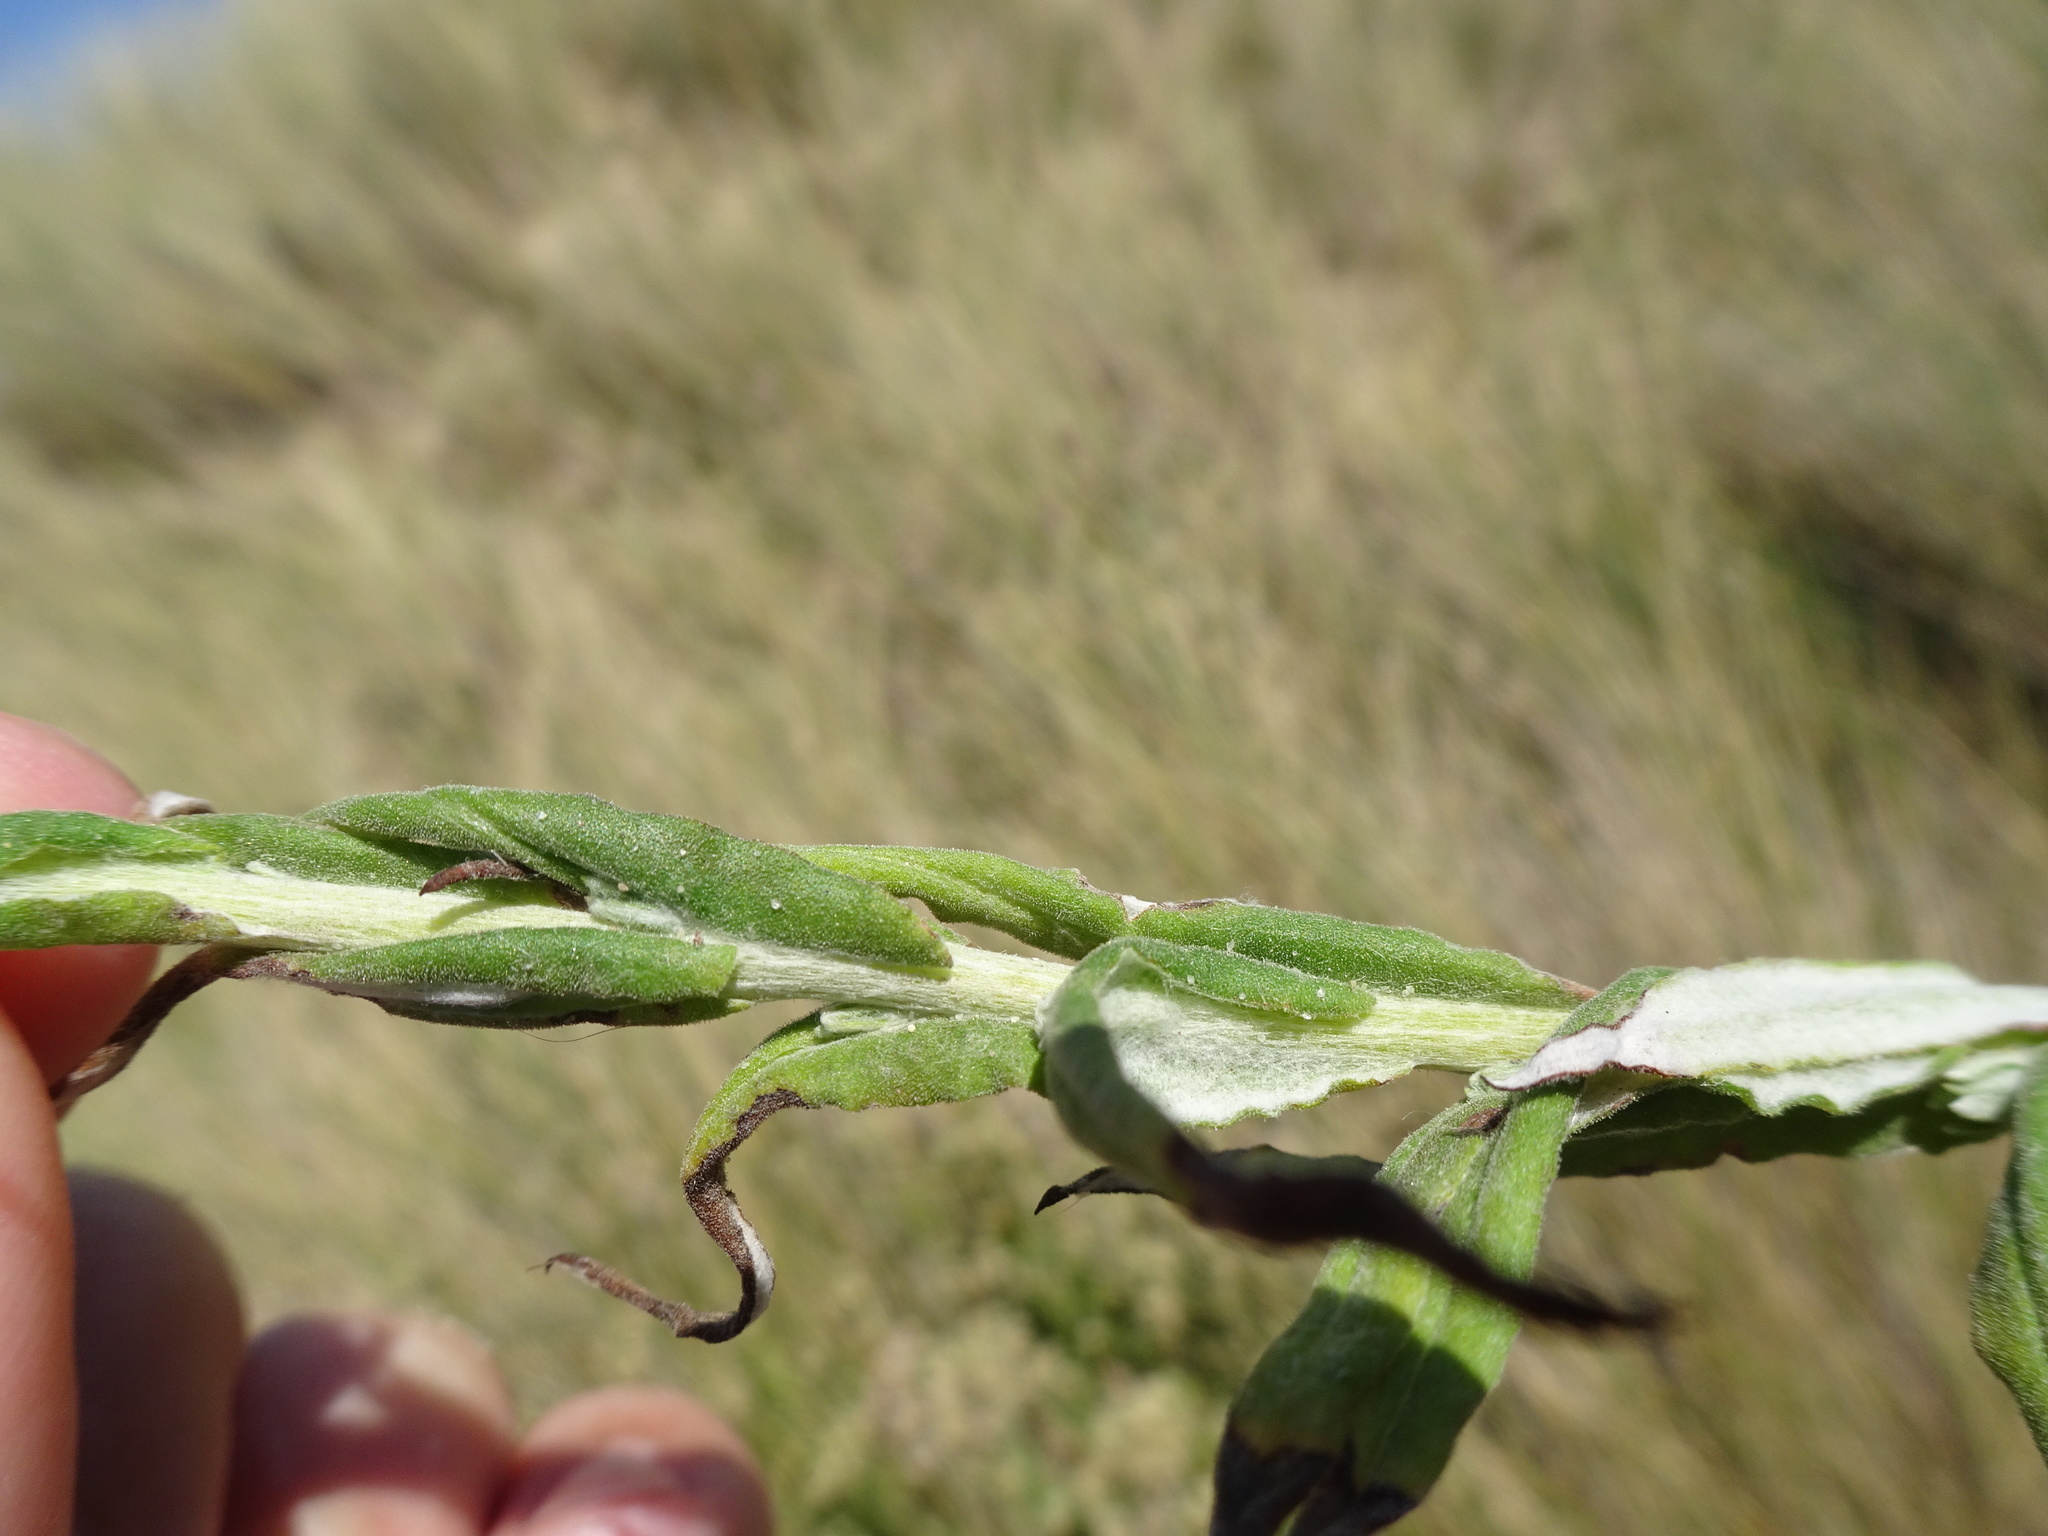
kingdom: Plantae
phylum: Tracheophyta
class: Magnoliopsida
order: Asterales
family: Asteraceae
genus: Pseudognaphalium
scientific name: Pseudognaphalium undulatum
